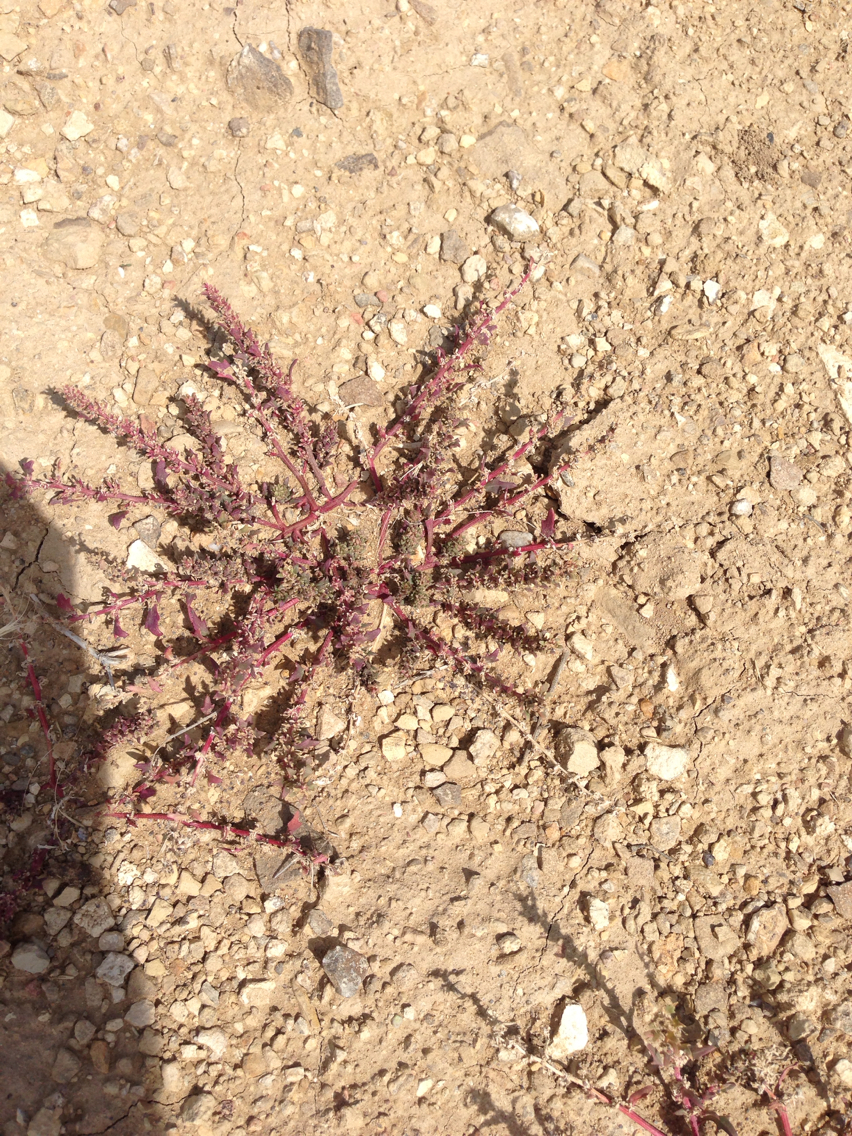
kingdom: Plantae
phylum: Tracheophyta
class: Magnoliopsida
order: Caryophyllales
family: Amaranthaceae
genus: Blitum
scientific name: Blitum nuttallianum
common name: Poverty-weed
